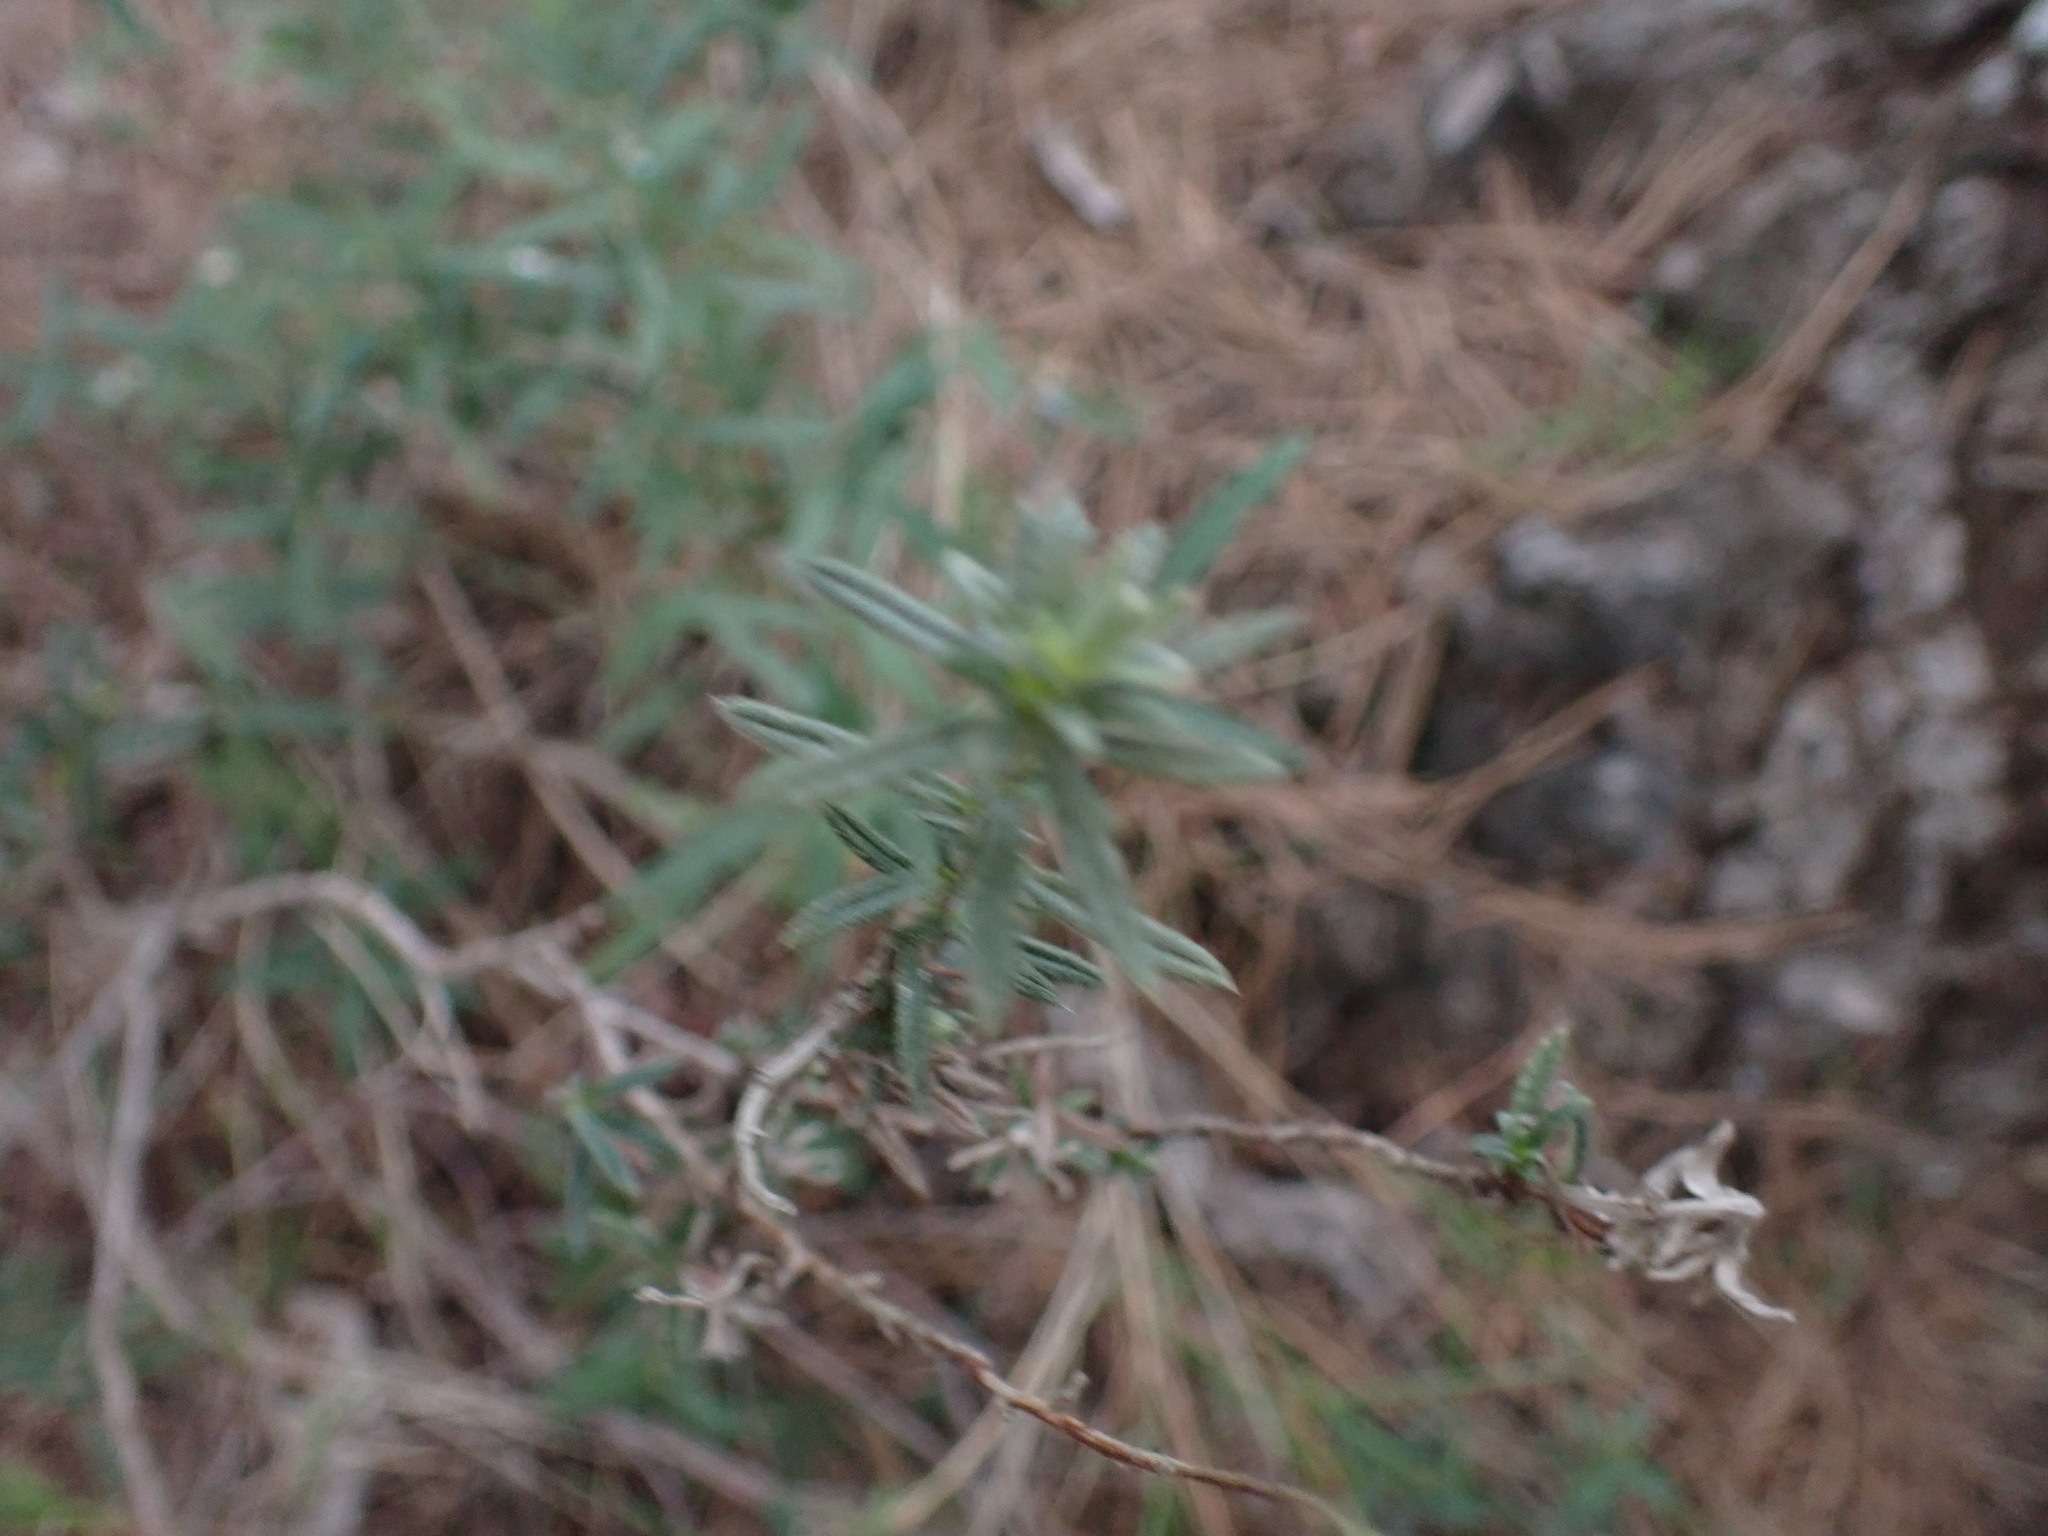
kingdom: Plantae
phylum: Tracheophyta
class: Magnoliopsida
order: Boraginales
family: Boraginaceae
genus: Lithodora
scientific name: Lithodora fruticosa
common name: Shrubby gromwell
